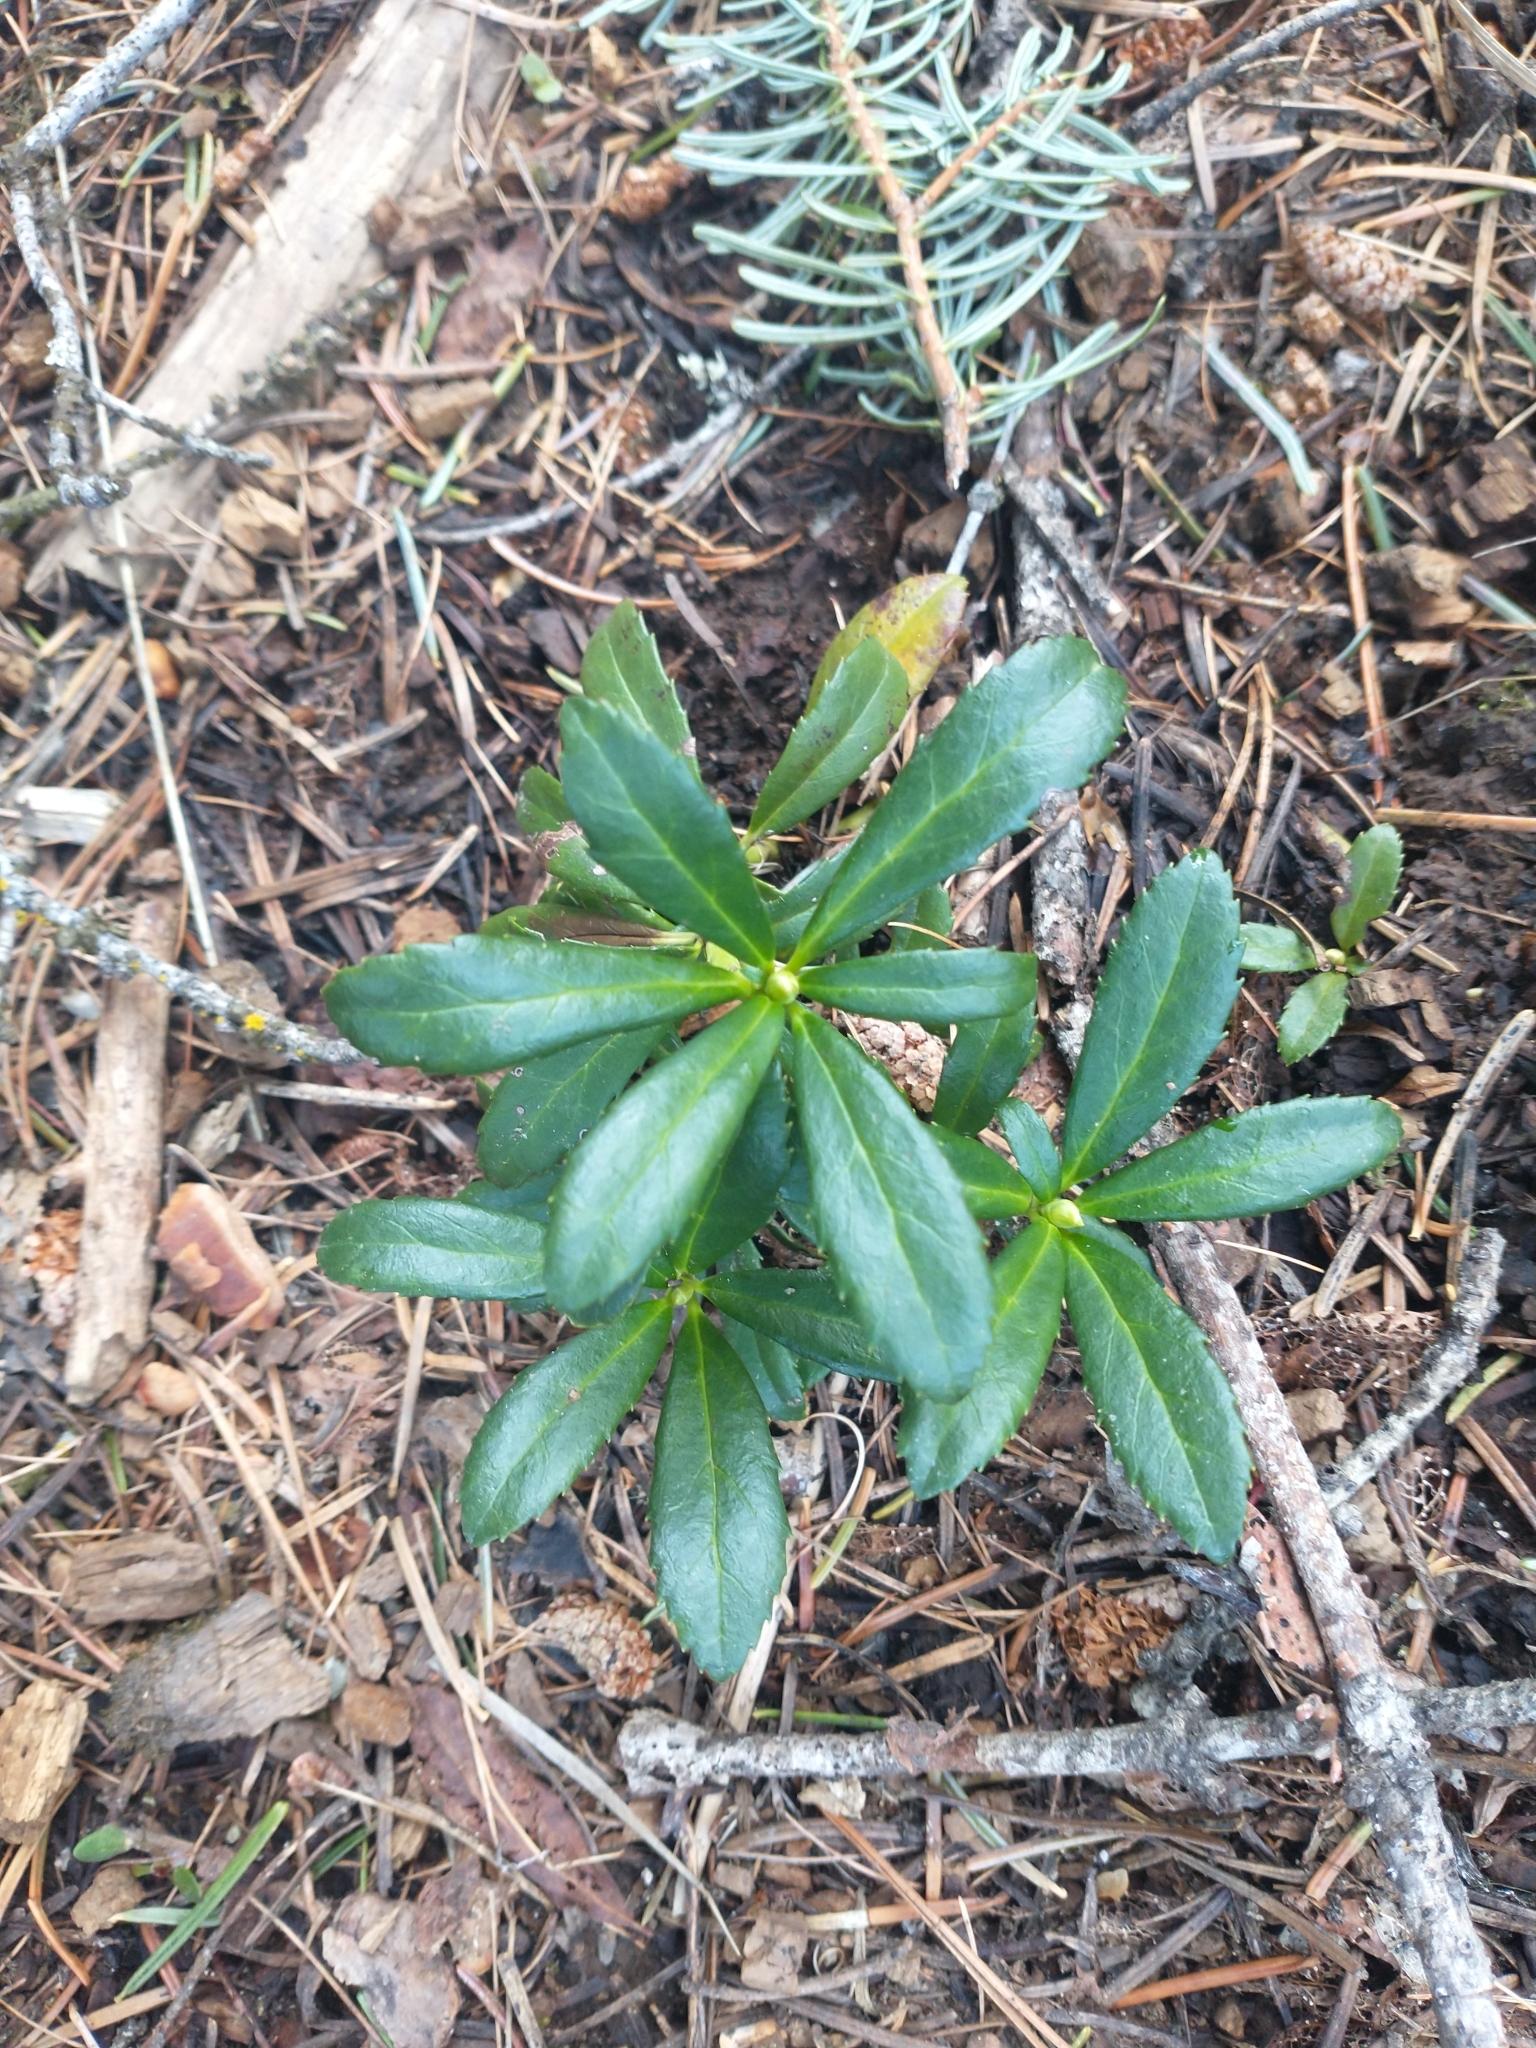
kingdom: Plantae
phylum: Tracheophyta
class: Magnoliopsida
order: Ericales
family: Ericaceae
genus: Chimaphila
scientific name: Chimaphila umbellata
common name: Pipsissewa
